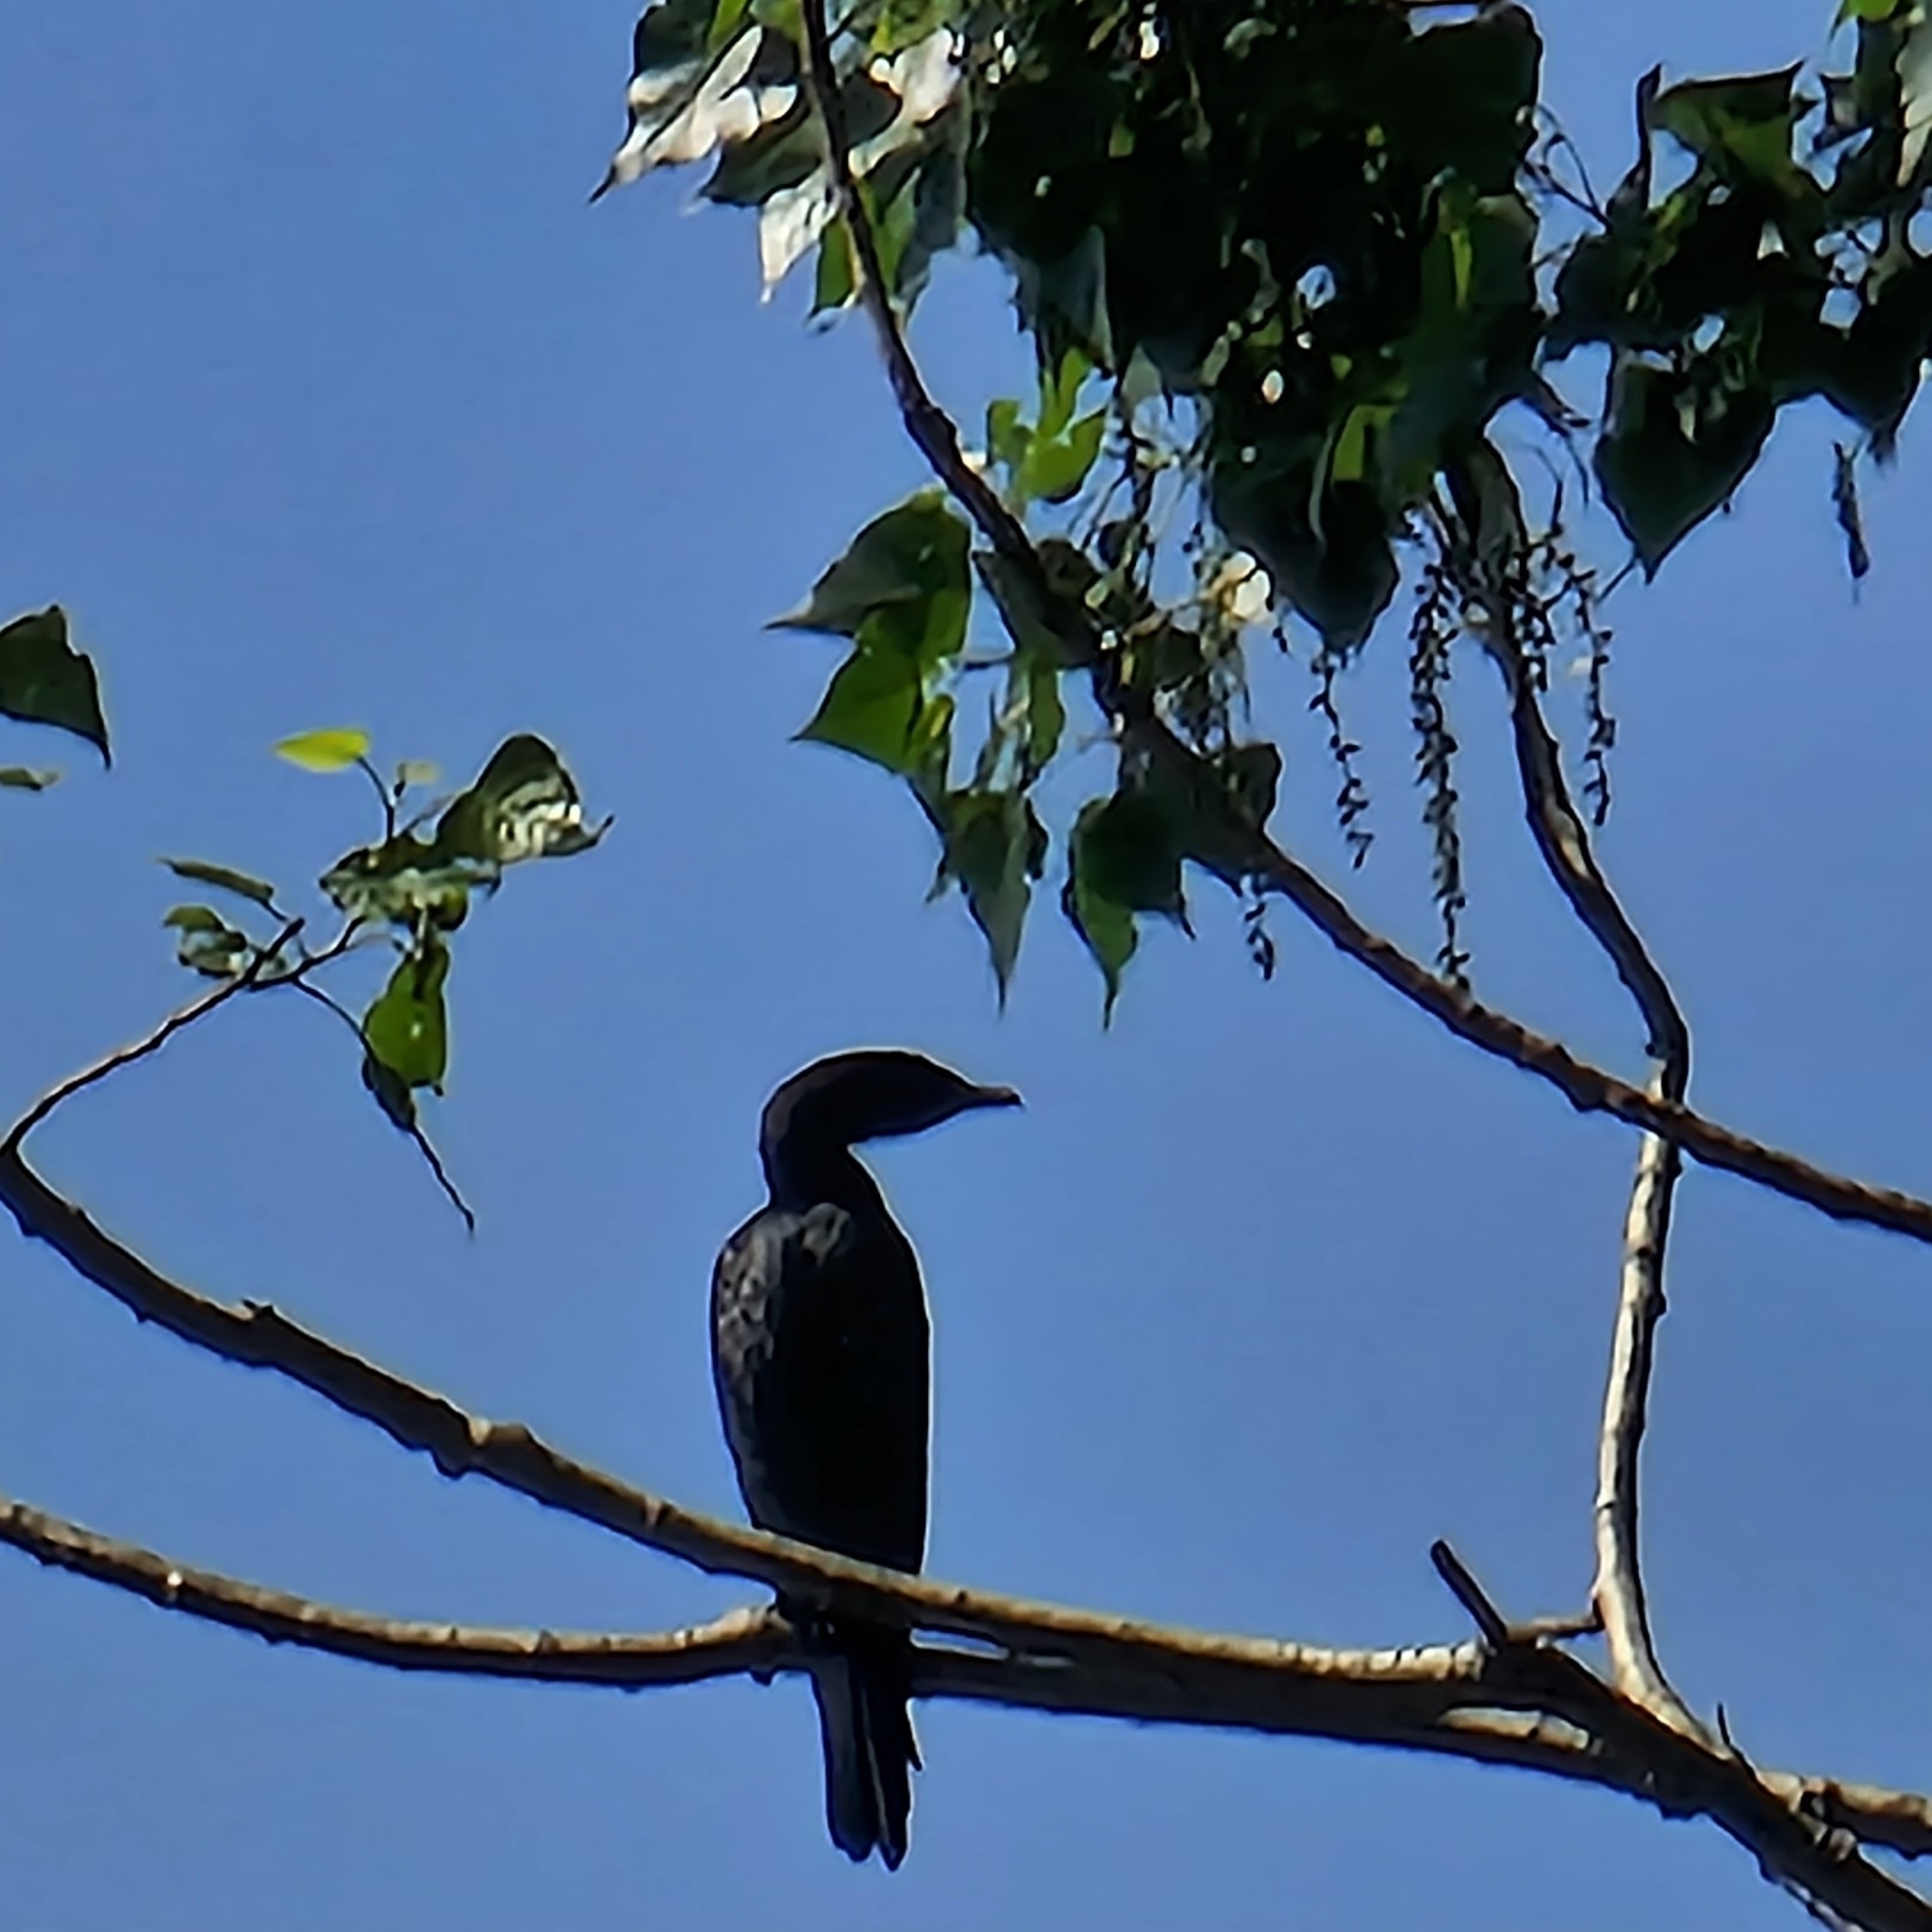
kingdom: Animalia
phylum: Chordata
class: Aves
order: Suliformes
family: Phalacrocoracidae
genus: Microcarbo
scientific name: Microcarbo pygmaeus
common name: Pygmy cormorant
